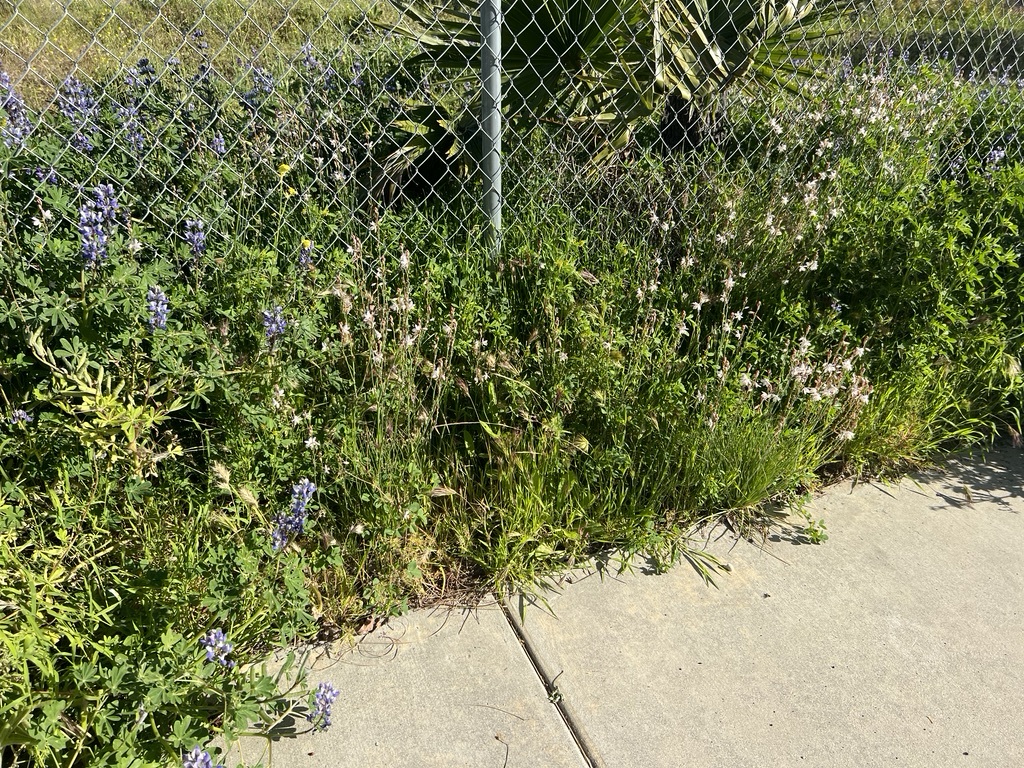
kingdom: Plantae
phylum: Tracheophyta
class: Liliopsida
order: Asparagales
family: Asphodelaceae
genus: Asphodelus
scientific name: Asphodelus fistulosus
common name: Onionweed
